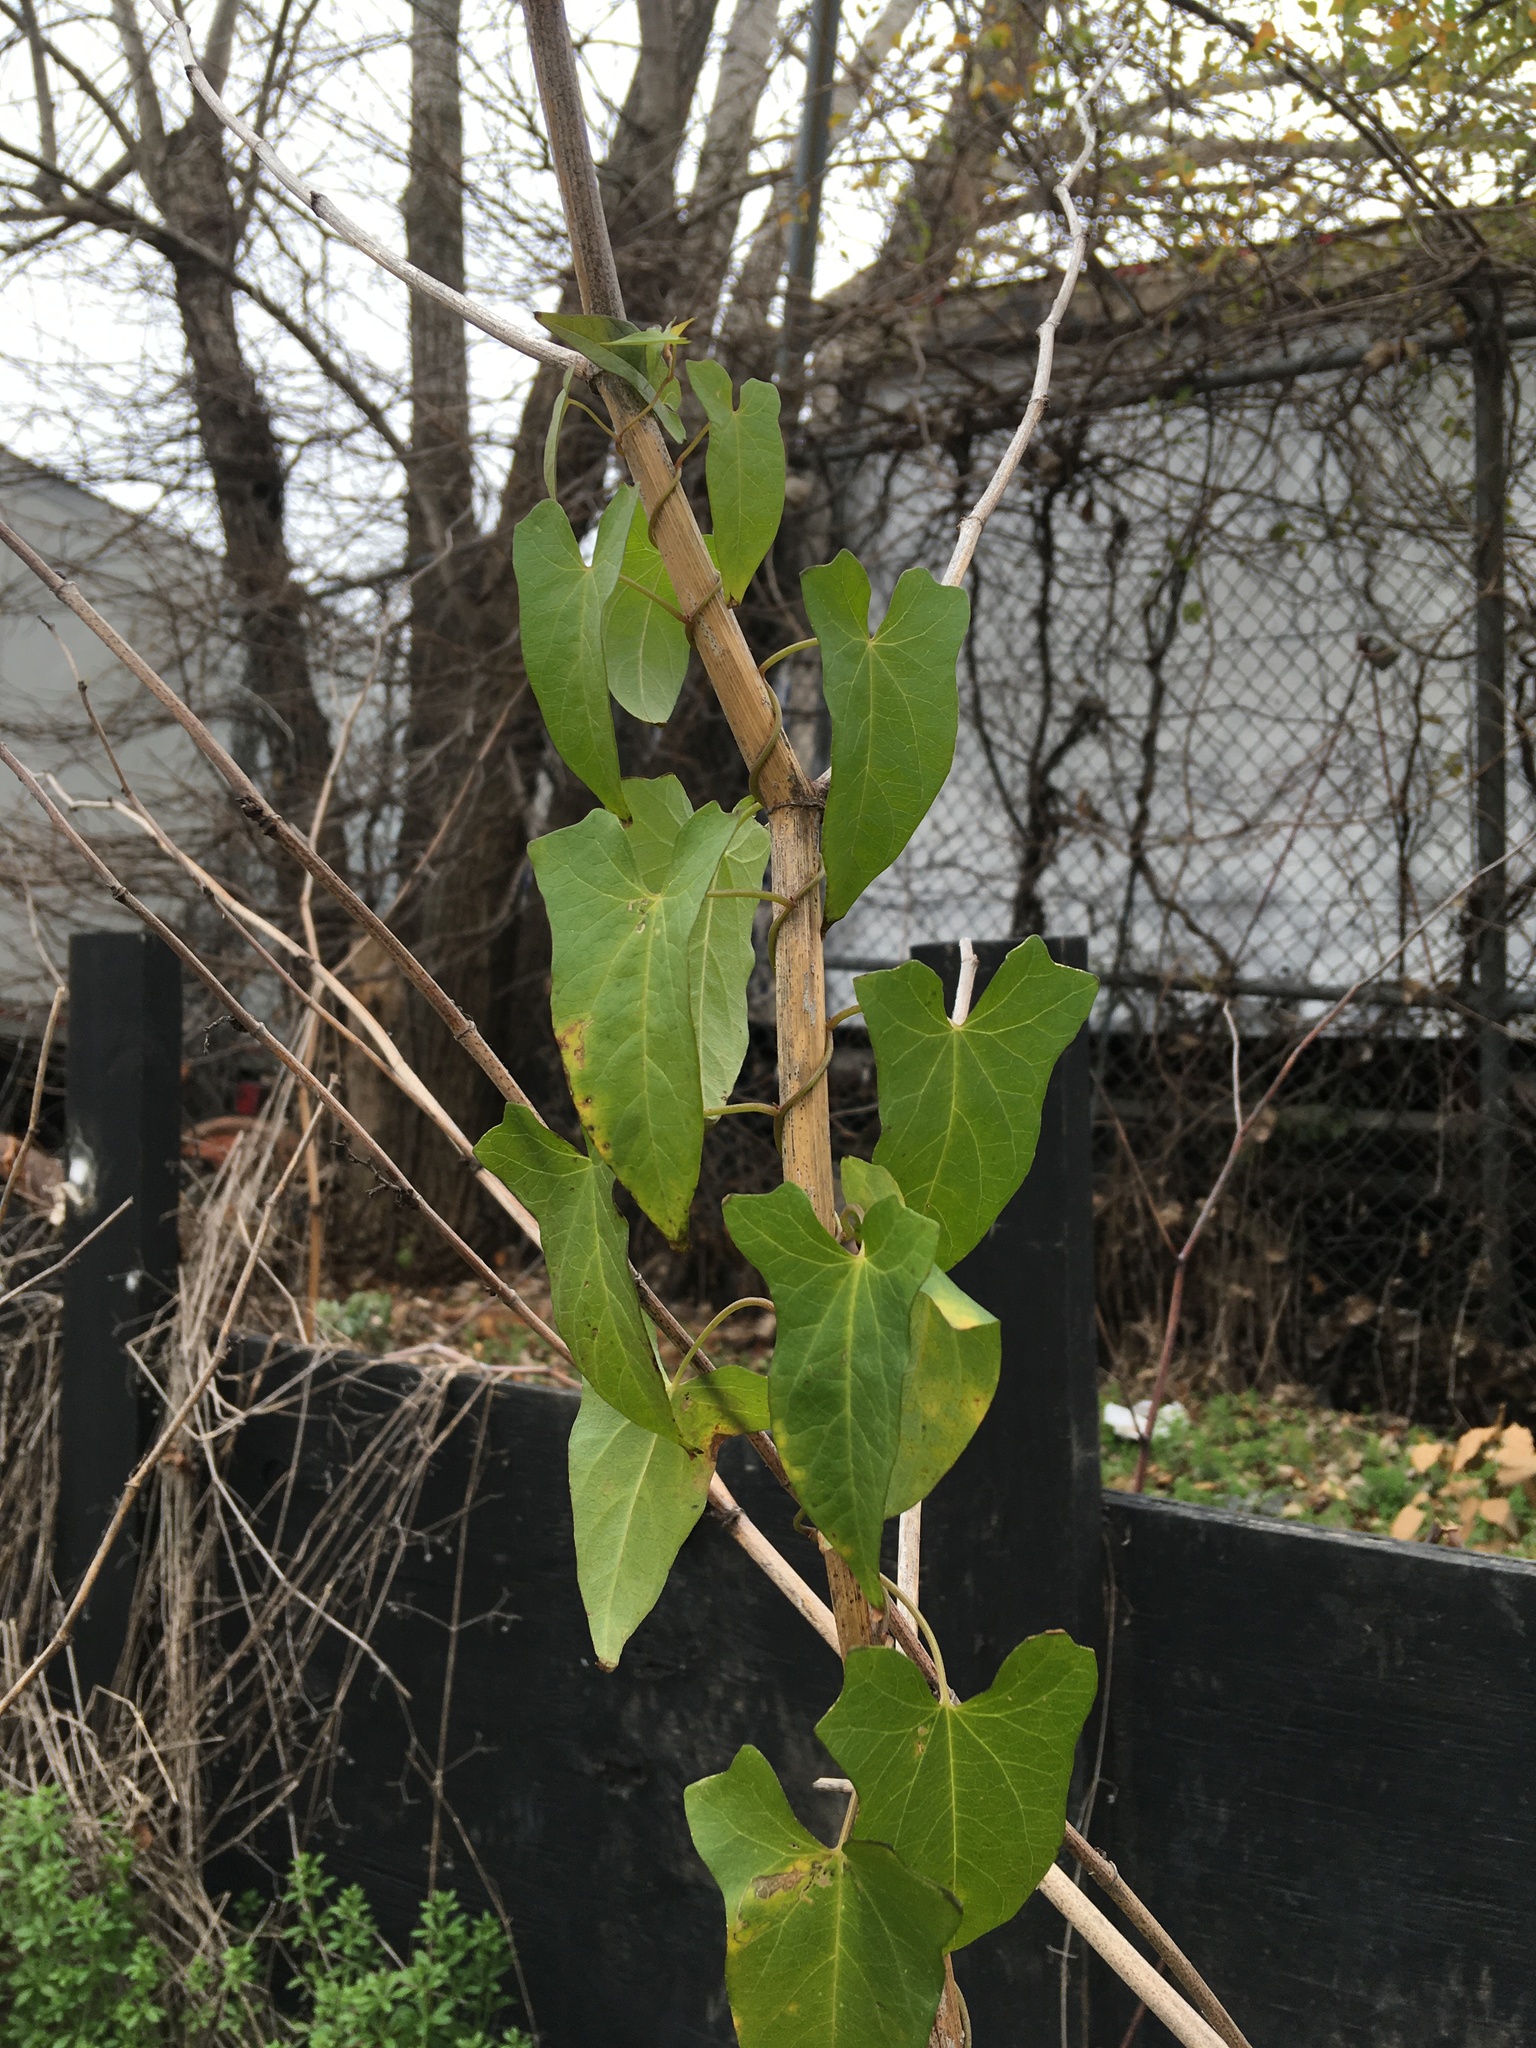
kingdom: Plantae
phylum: Tracheophyta
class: Magnoliopsida
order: Solanales
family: Convolvulaceae
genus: Calystegia
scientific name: Calystegia sepium
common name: Hedge bindweed
